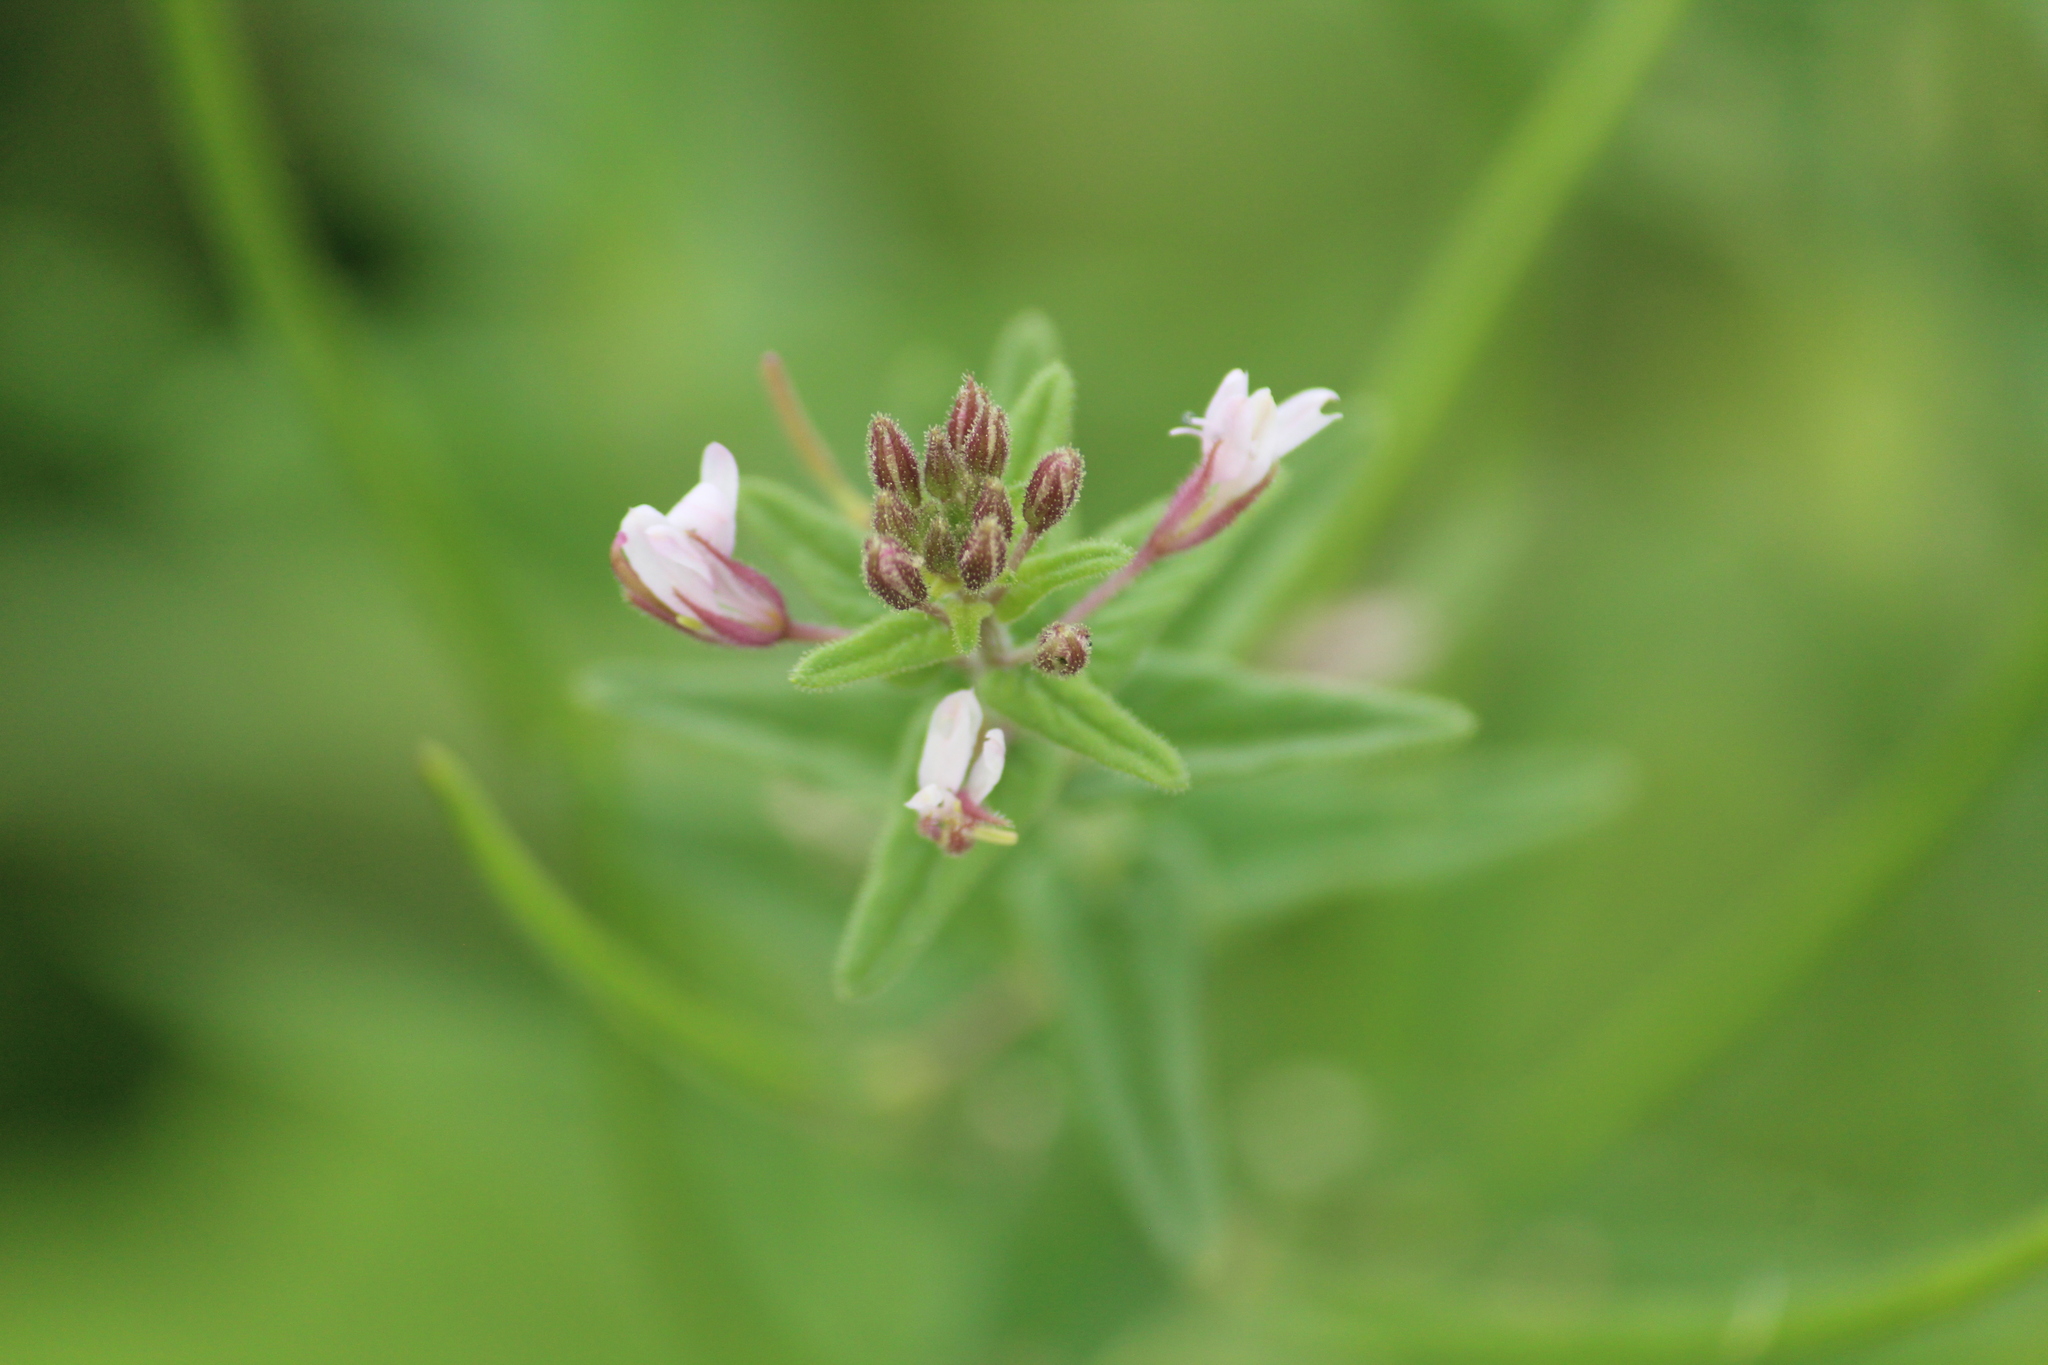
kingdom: Plantae
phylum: Tracheophyta
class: Magnoliopsida
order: Brassicales
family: Cleomaceae
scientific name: Cleomaceae
